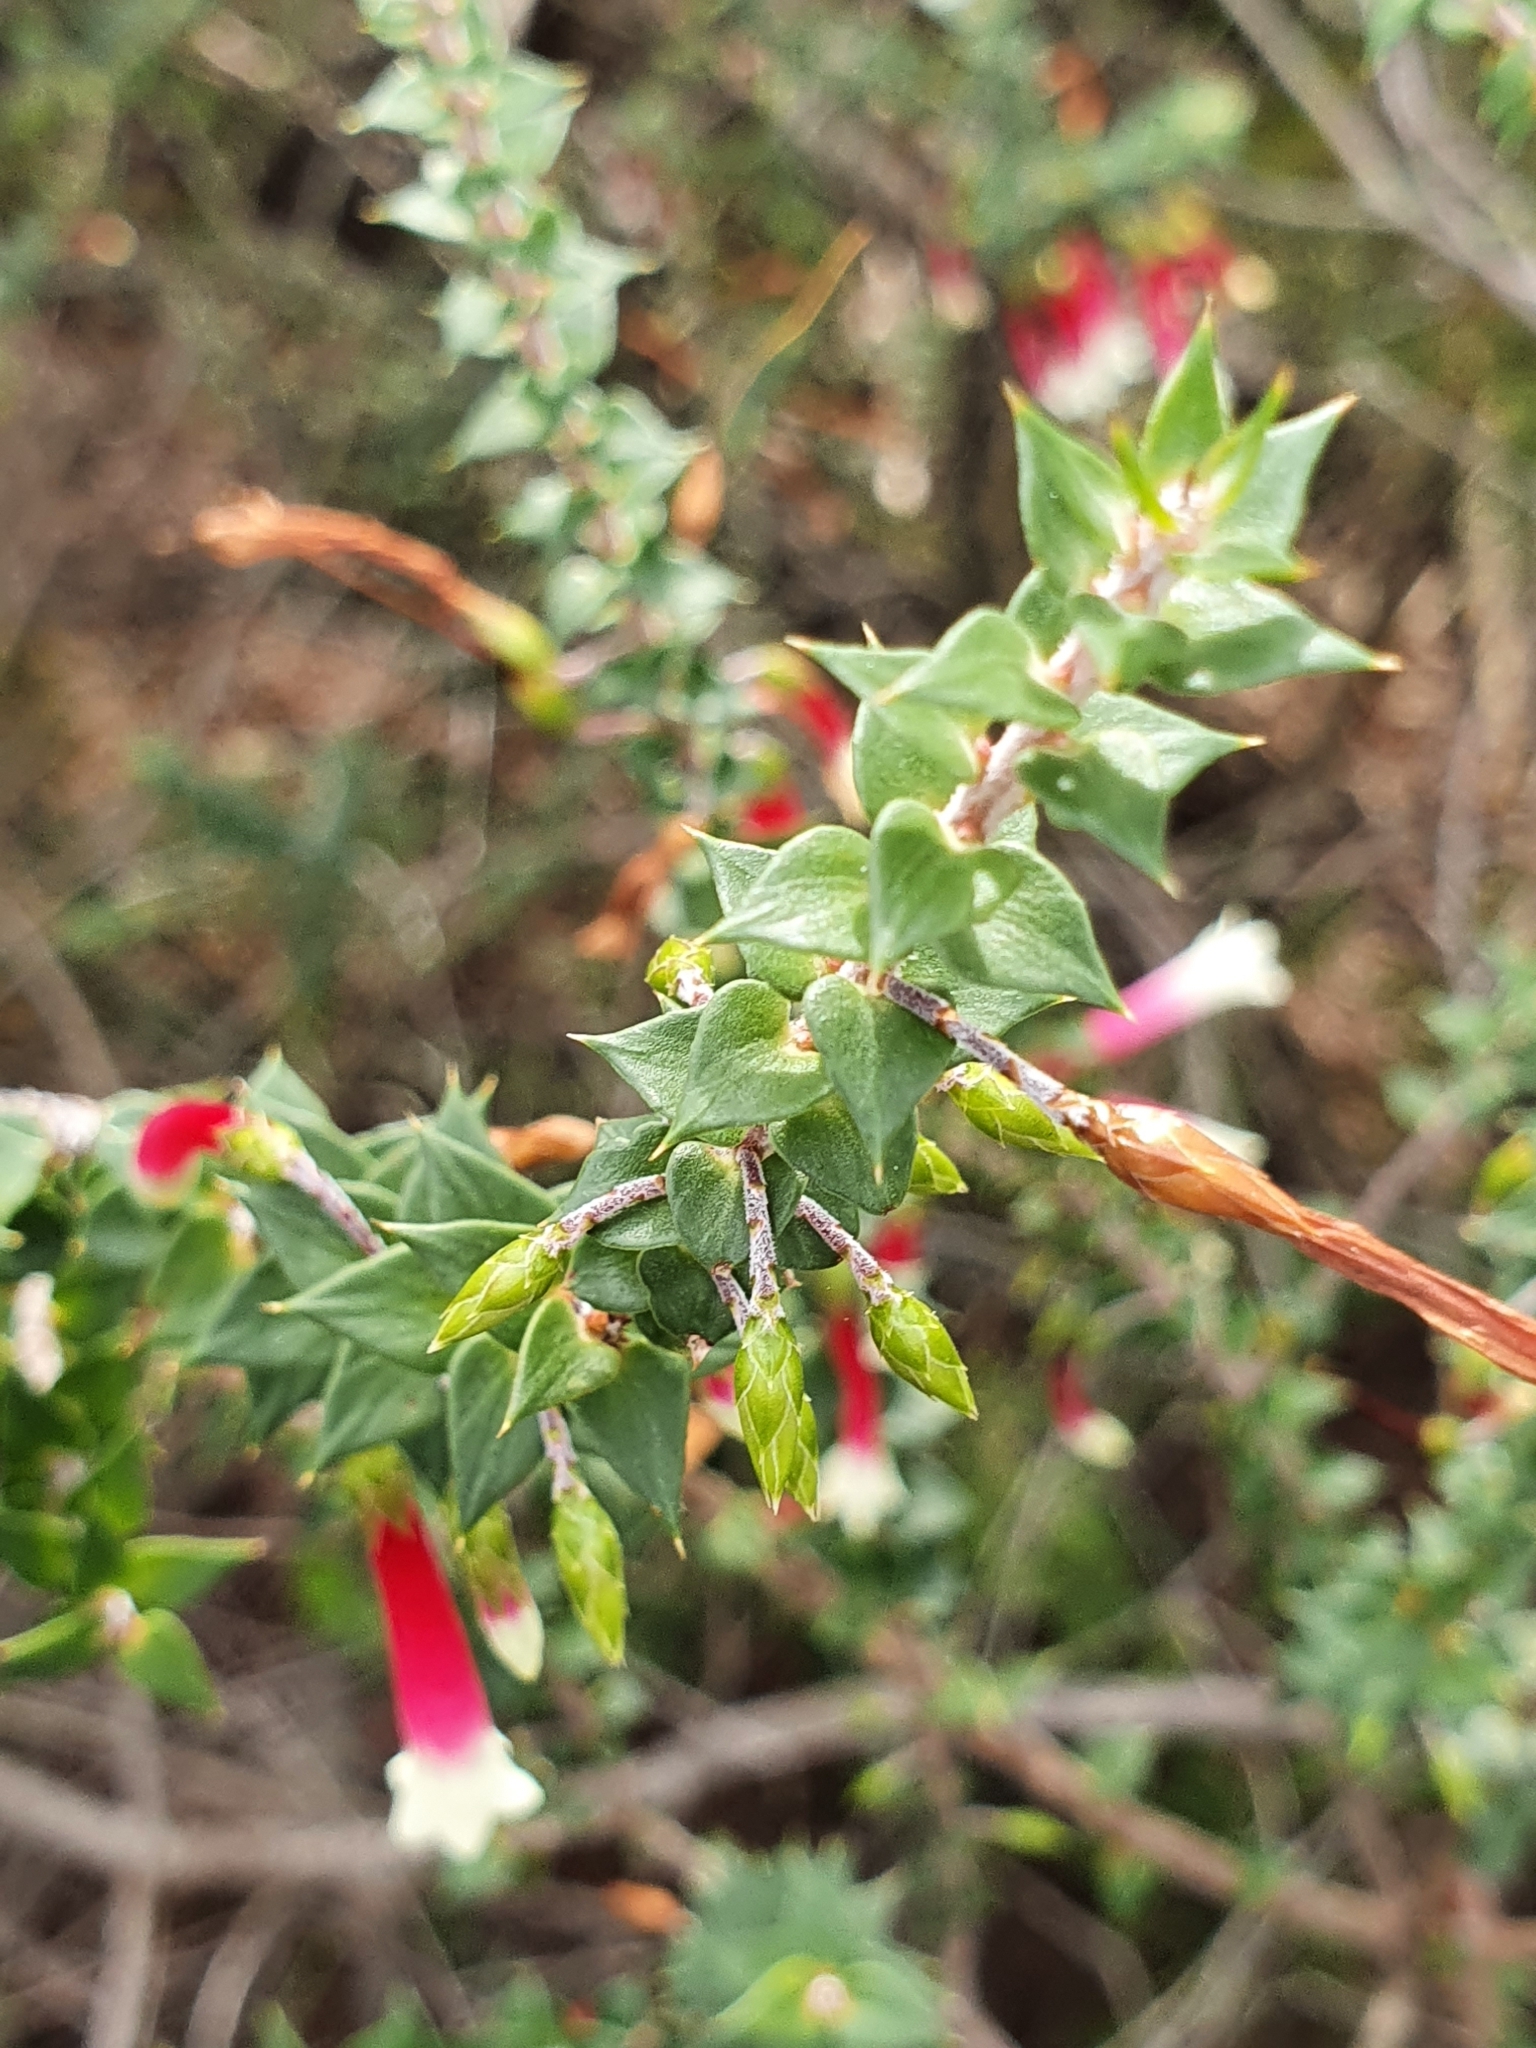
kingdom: Plantae
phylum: Tracheophyta
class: Magnoliopsida
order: Ericales
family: Ericaceae
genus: Epacris
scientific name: Epacris longiflora
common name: Fuchsia-heath
